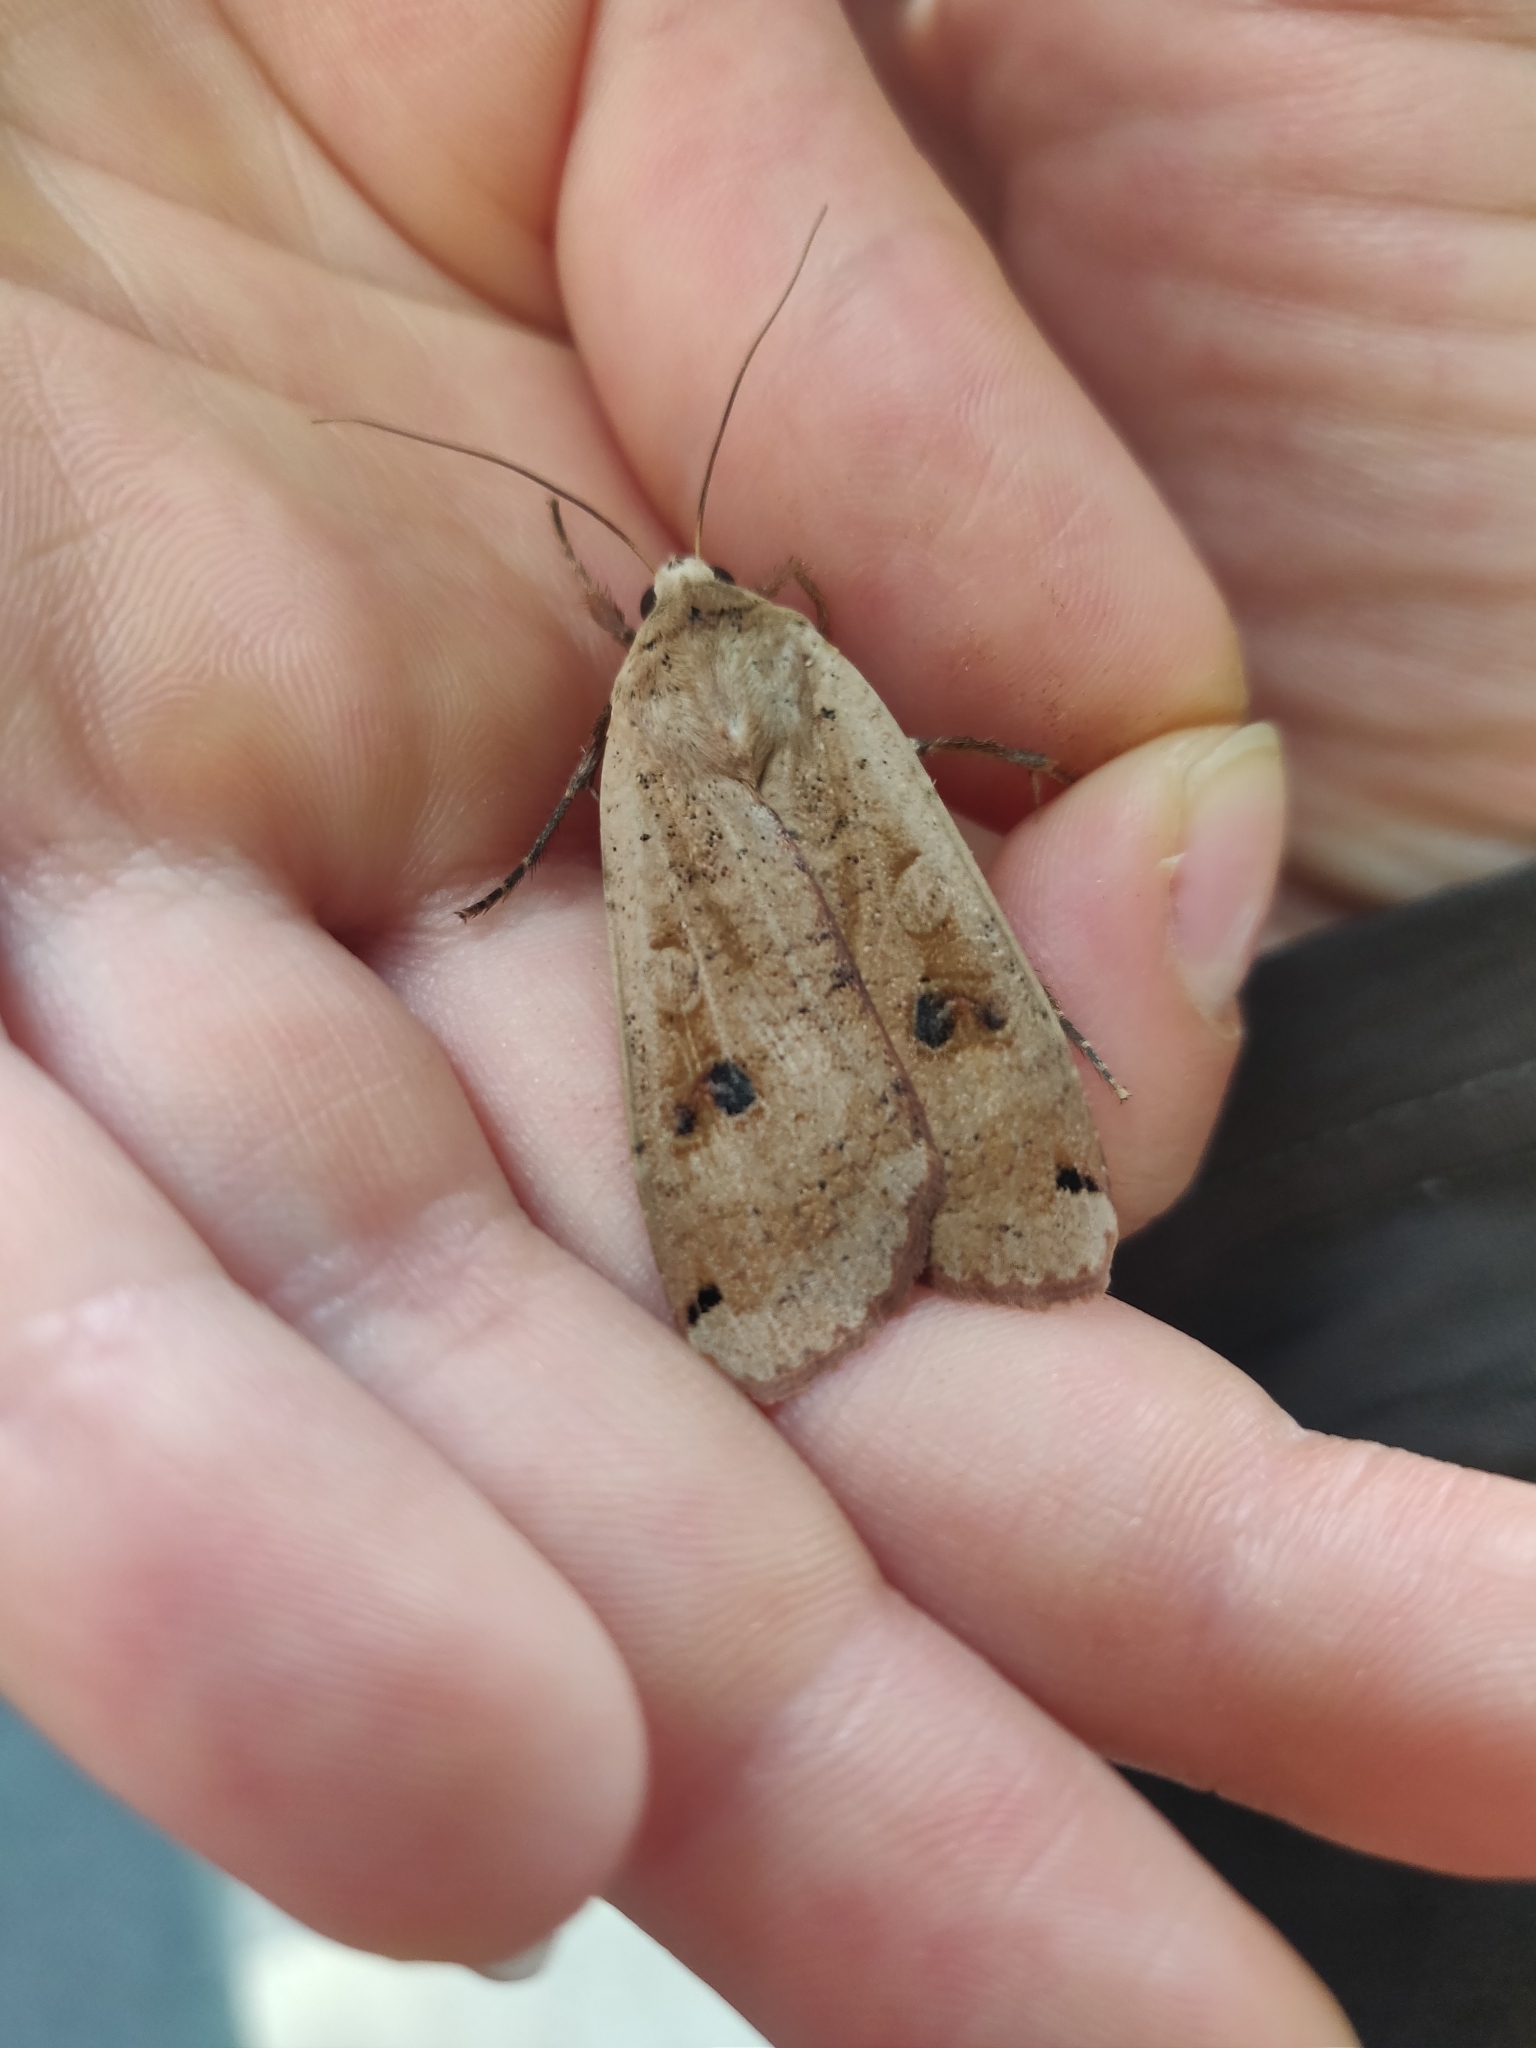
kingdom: Animalia
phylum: Arthropoda
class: Insecta
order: Lepidoptera
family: Noctuidae
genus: Noctua
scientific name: Noctua pronuba
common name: Large yellow underwing
